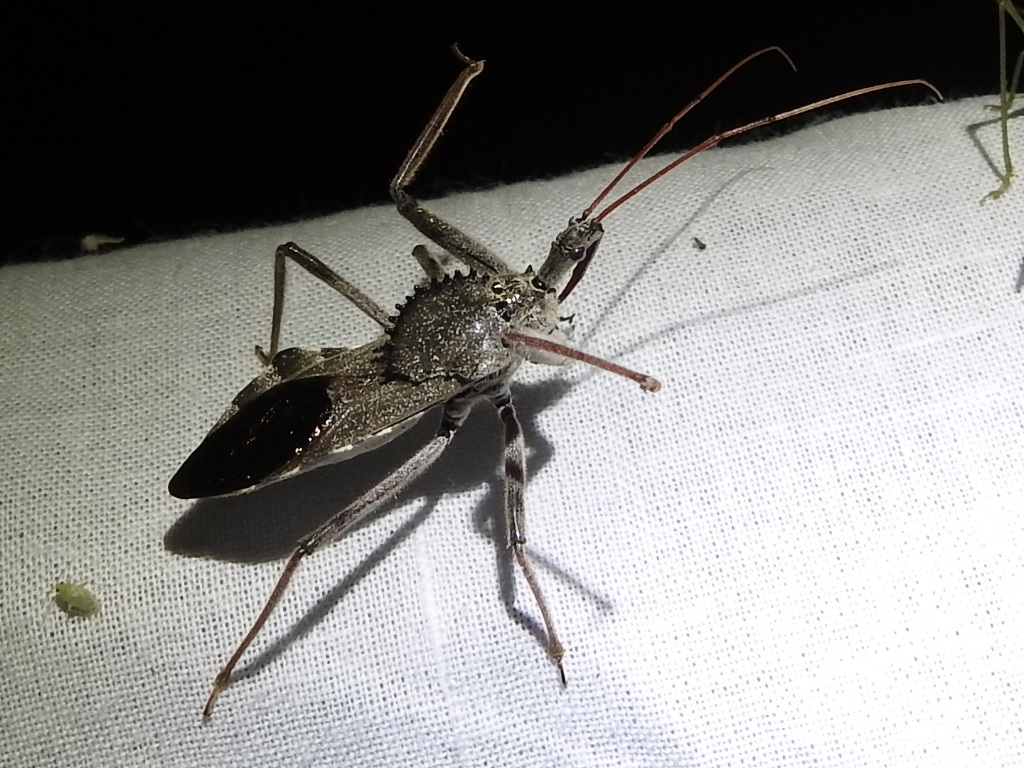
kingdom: Animalia
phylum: Arthropoda
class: Insecta
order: Hemiptera
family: Reduviidae
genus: Arilus
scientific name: Arilus cristatus
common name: North american wheel bug
